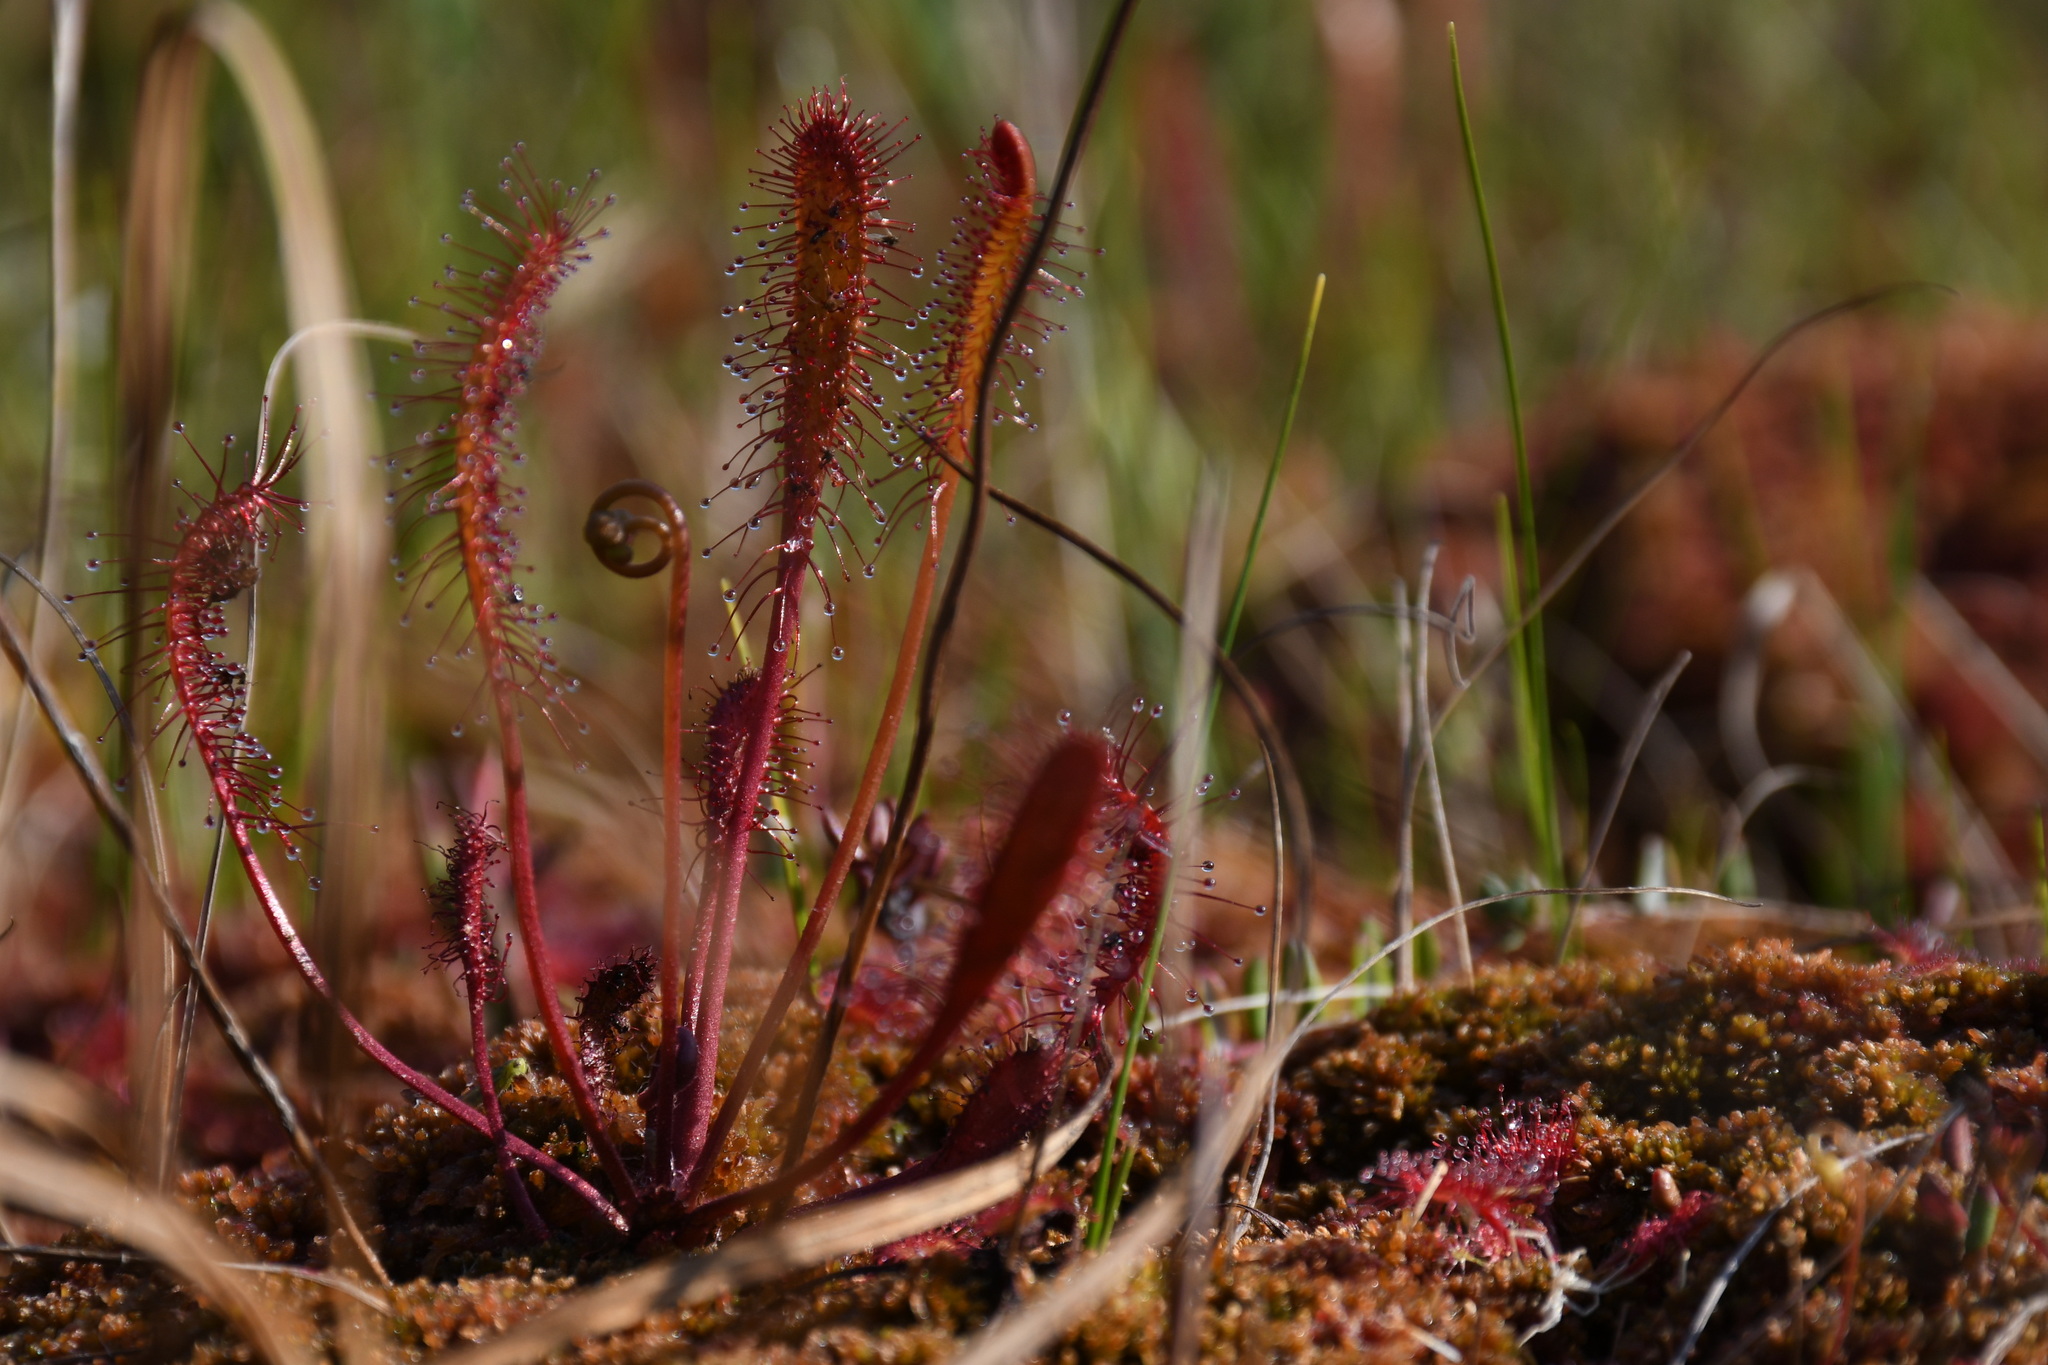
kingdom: Plantae
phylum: Tracheophyta
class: Magnoliopsida
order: Caryophyllales
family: Droseraceae
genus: Drosera
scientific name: Drosera anglica
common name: Great sundew
